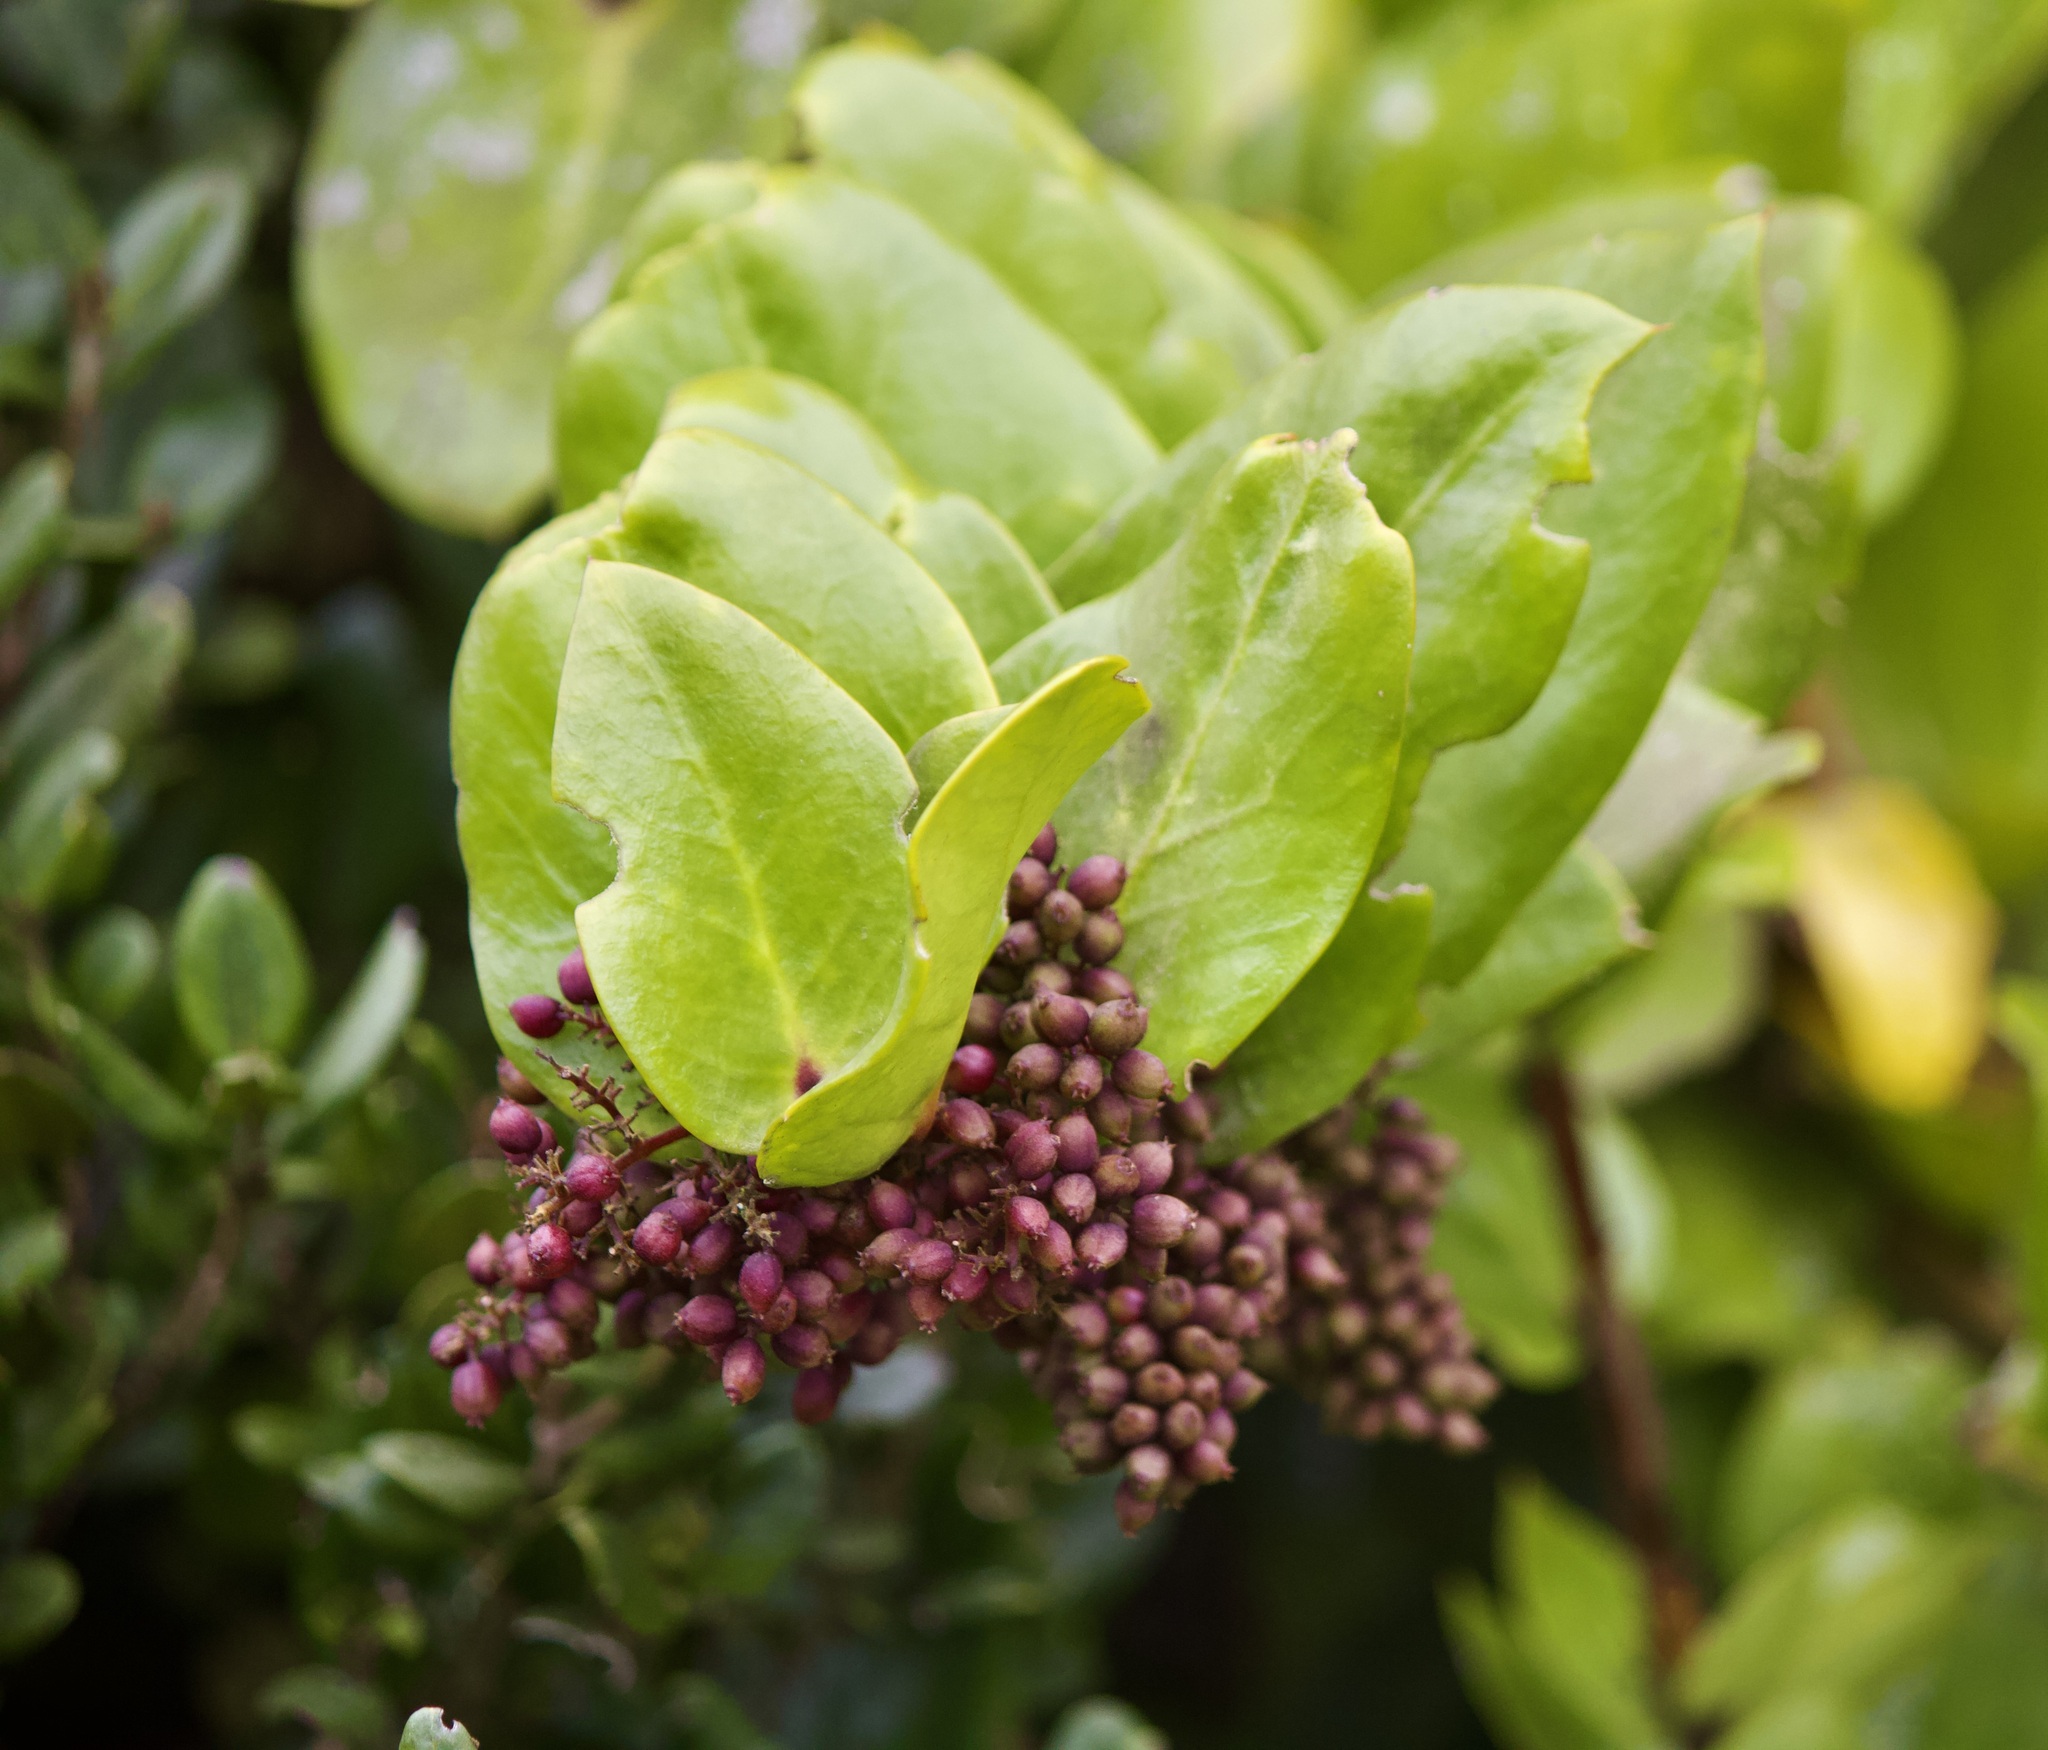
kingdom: Plantae
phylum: Tracheophyta
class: Magnoliopsida
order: Apiales
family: Griseliniaceae
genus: Griselinia
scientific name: Griselinia scandens
